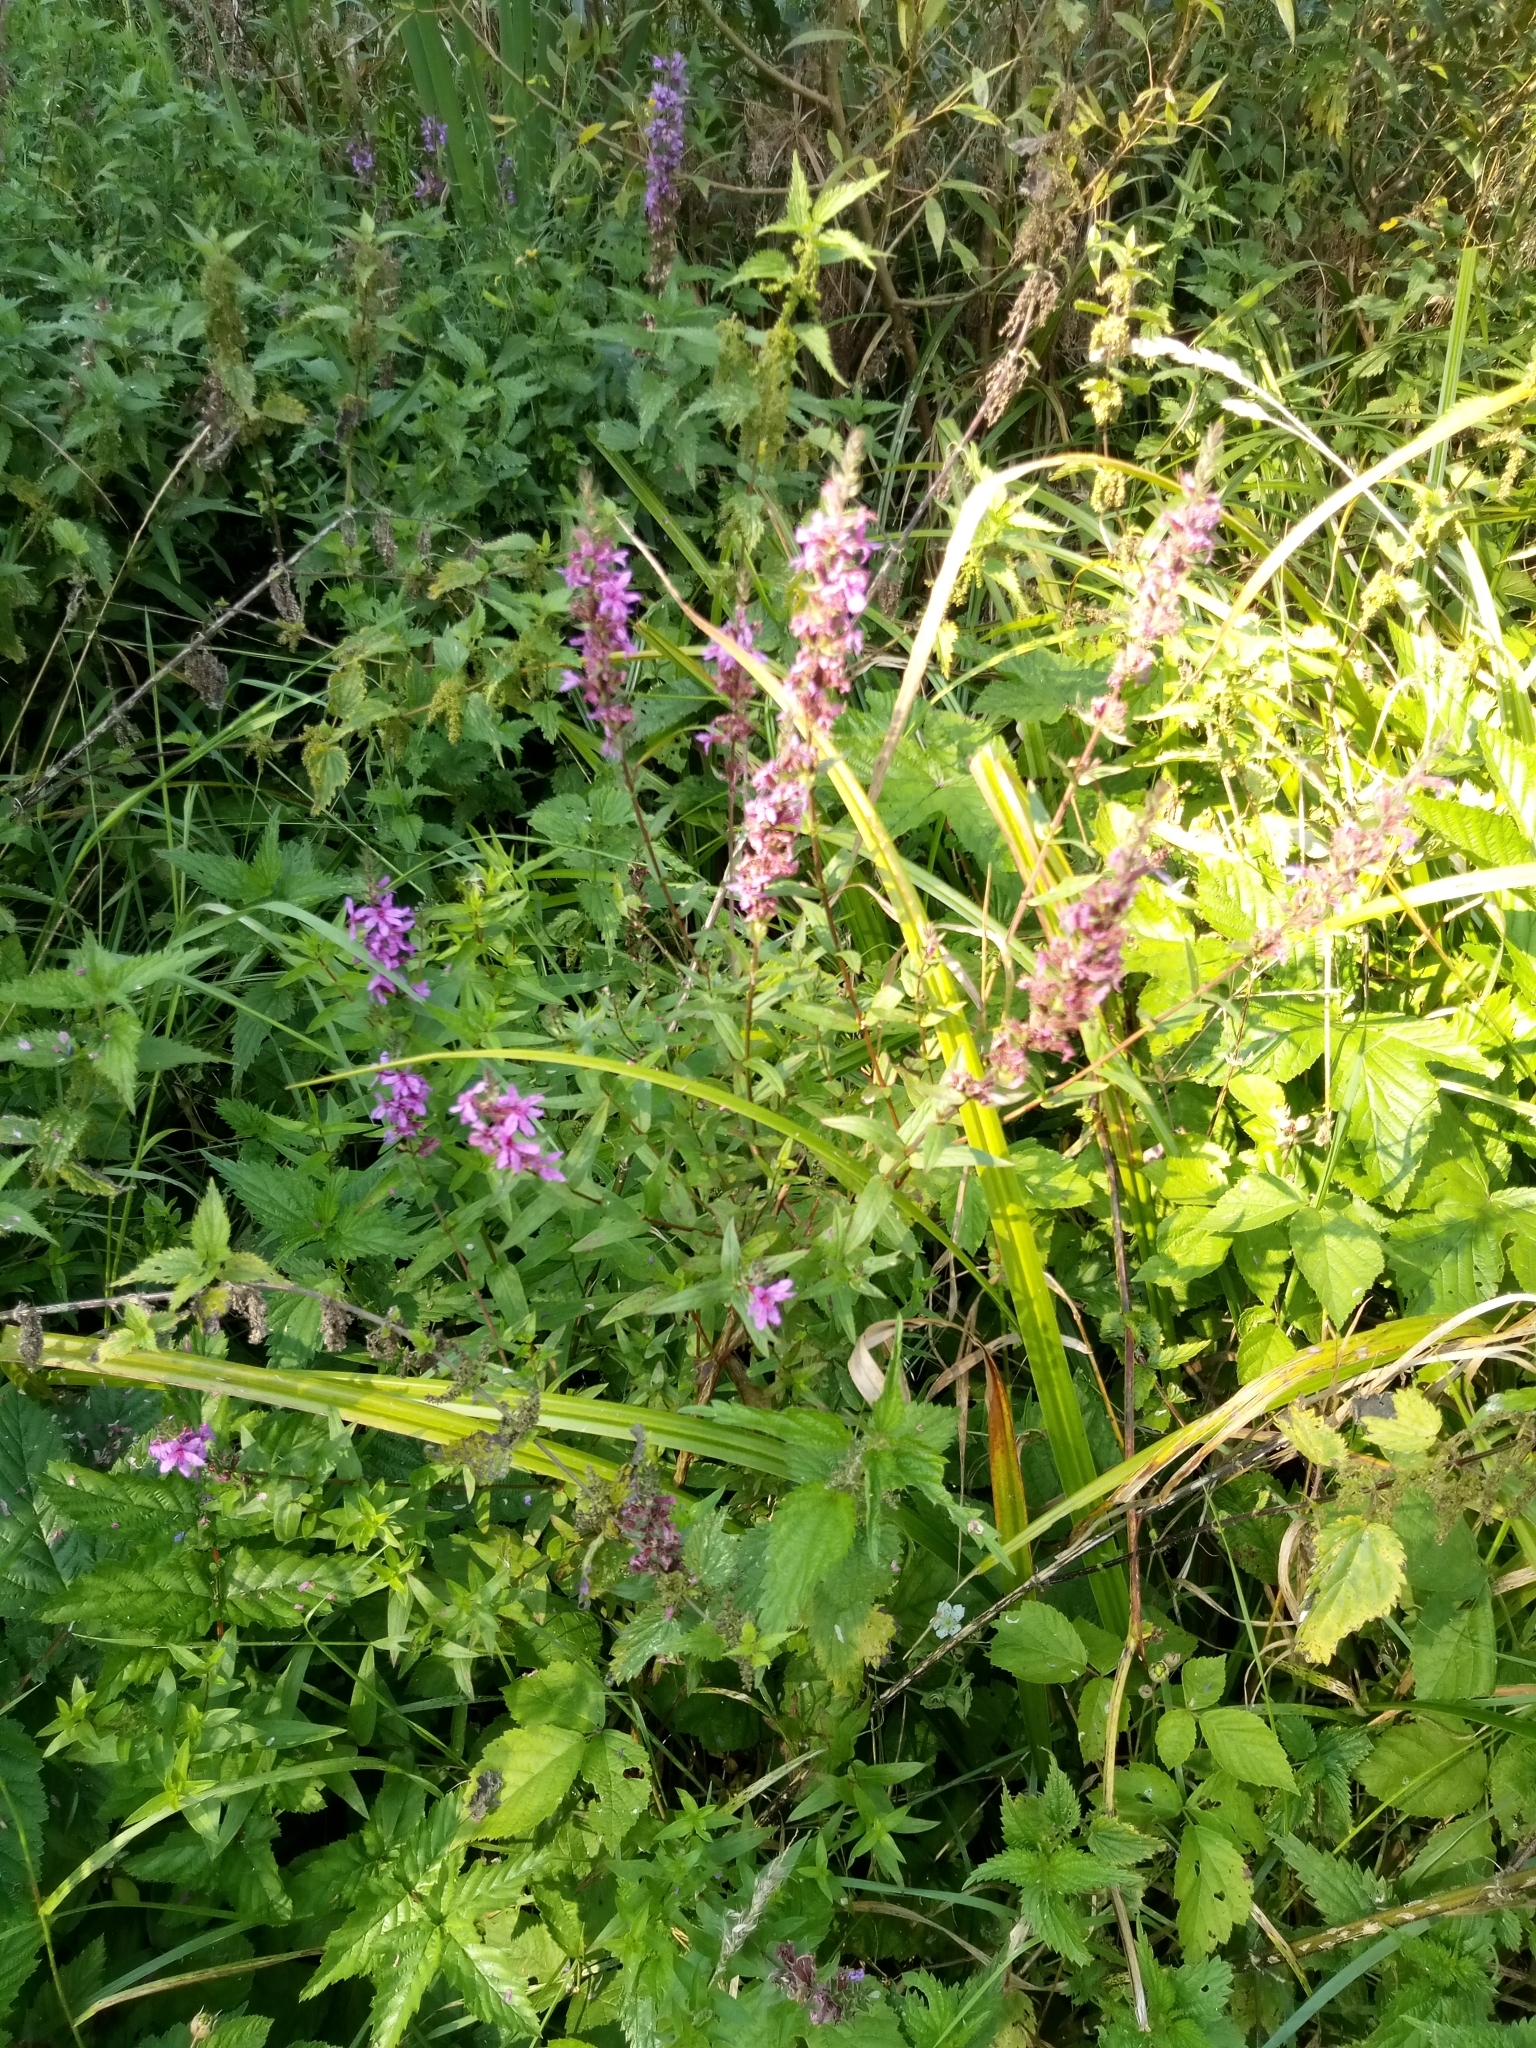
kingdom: Plantae
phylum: Tracheophyta
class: Magnoliopsida
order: Myrtales
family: Lythraceae
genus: Lythrum
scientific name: Lythrum salicaria
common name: Purple loosestrife
